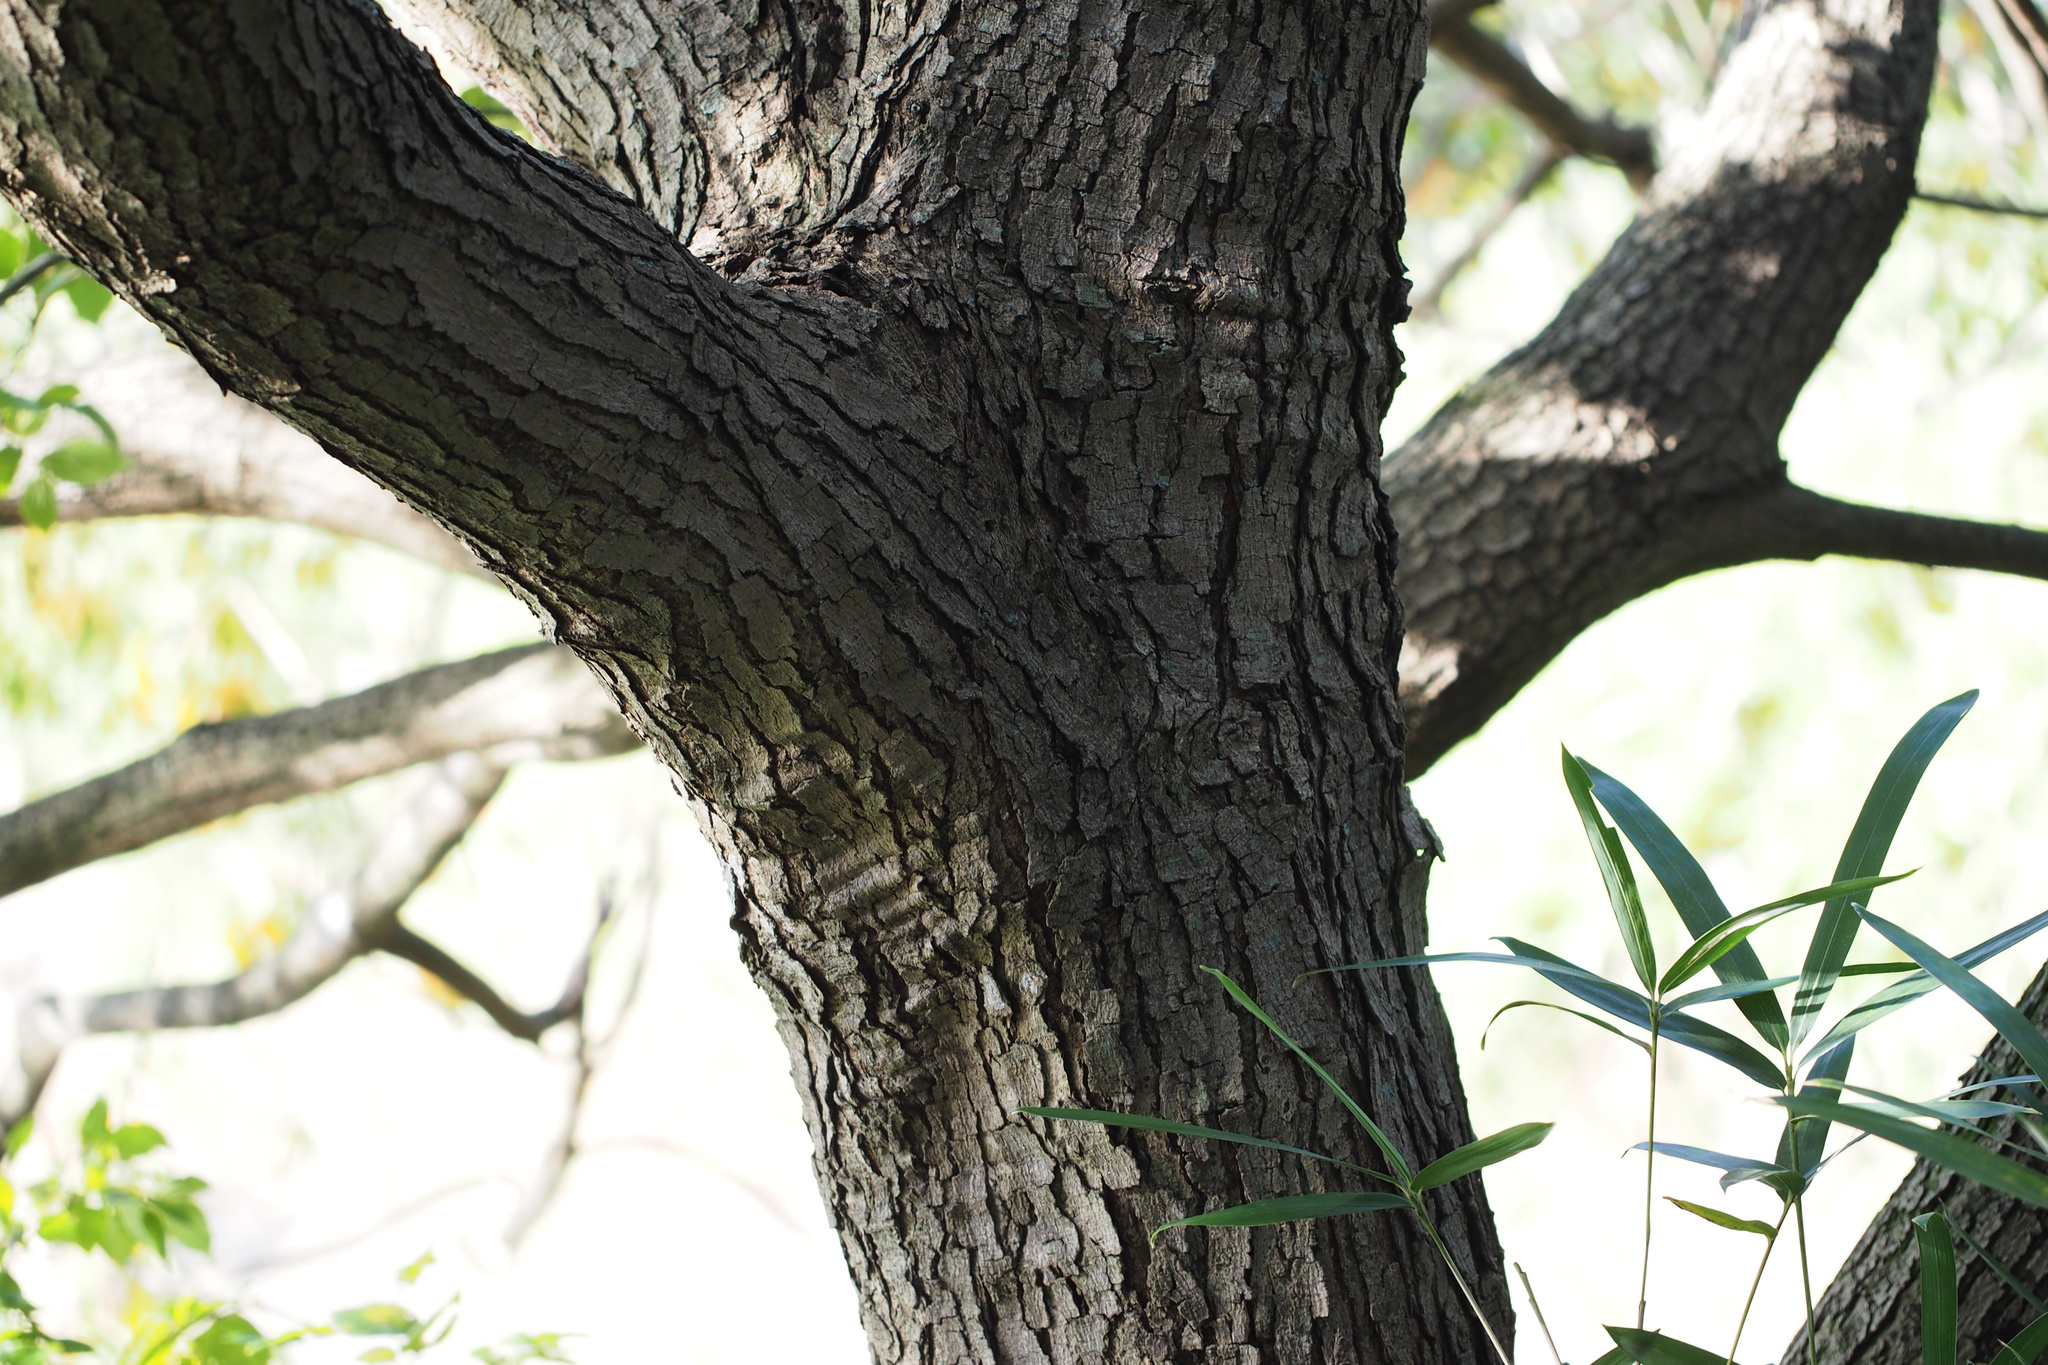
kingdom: Plantae
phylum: Tracheophyta
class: Magnoliopsida
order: Sapindales
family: Anacardiaceae
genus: Toxicodendron
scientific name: Toxicodendron succedaneum
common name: Wax tree
